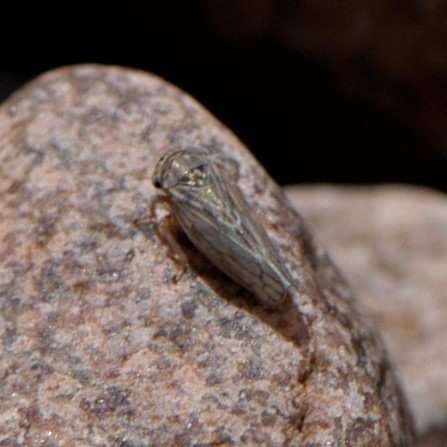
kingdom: Animalia
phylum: Arthropoda
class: Insecta
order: Hemiptera
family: Cicadellidae
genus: Ceratagallia
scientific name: Ceratagallia
